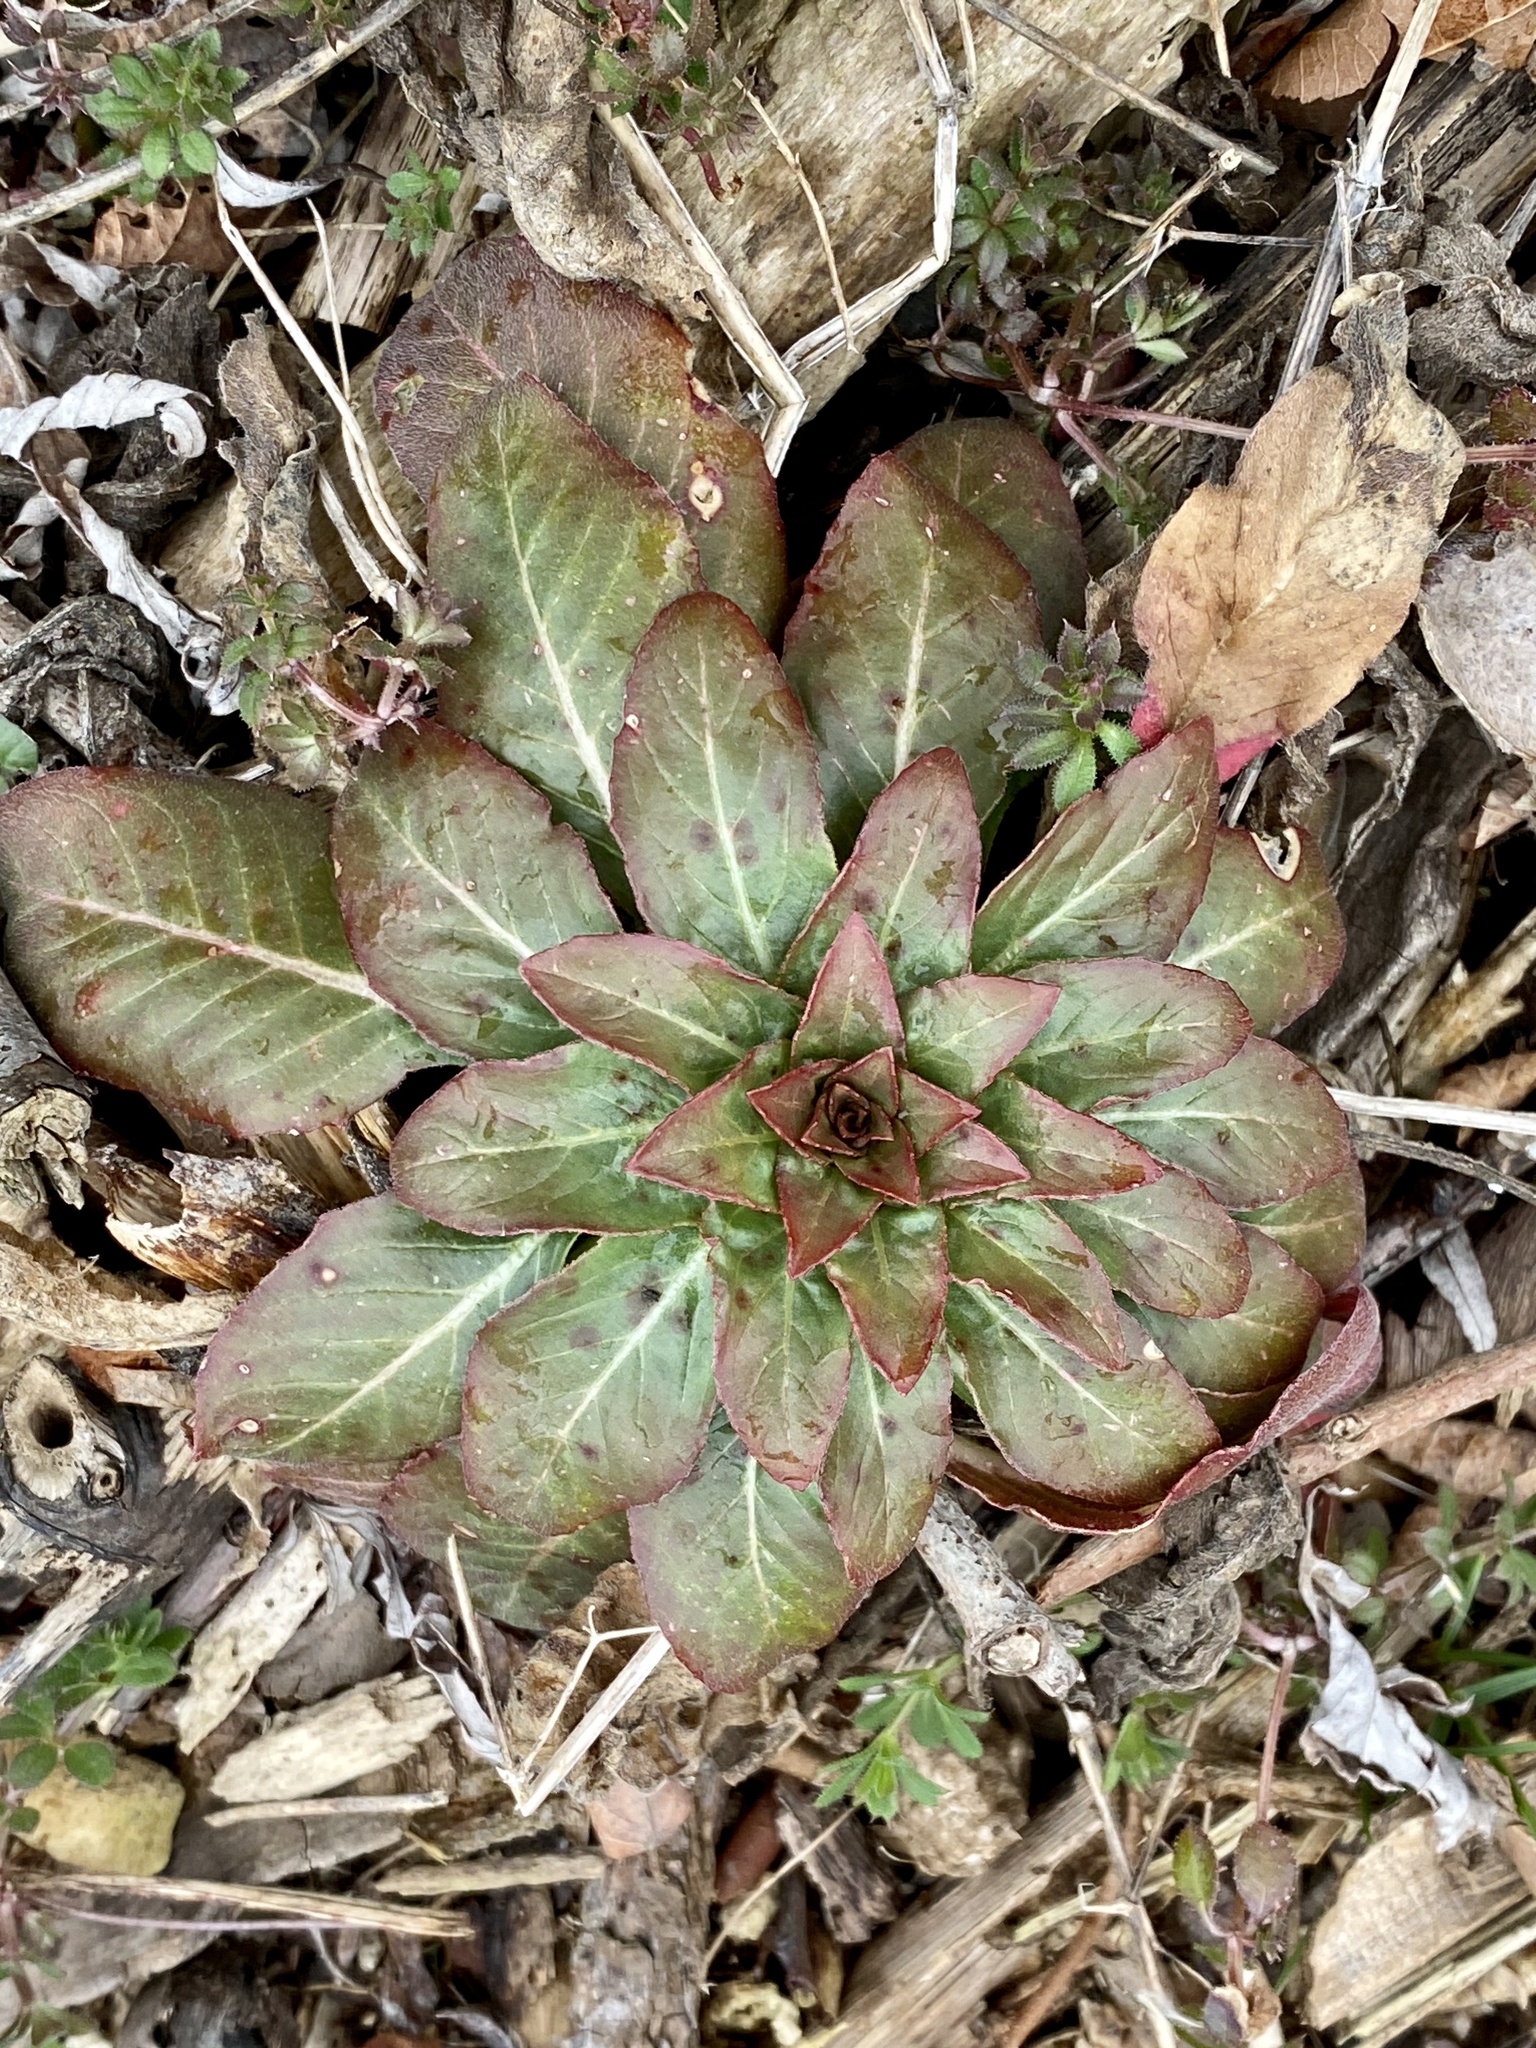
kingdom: Plantae
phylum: Tracheophyta
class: Magnoliopsida
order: Myrtales
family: Onagraceae
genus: Oenothera
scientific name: Oenothera biennis
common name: Common evening-primrose
